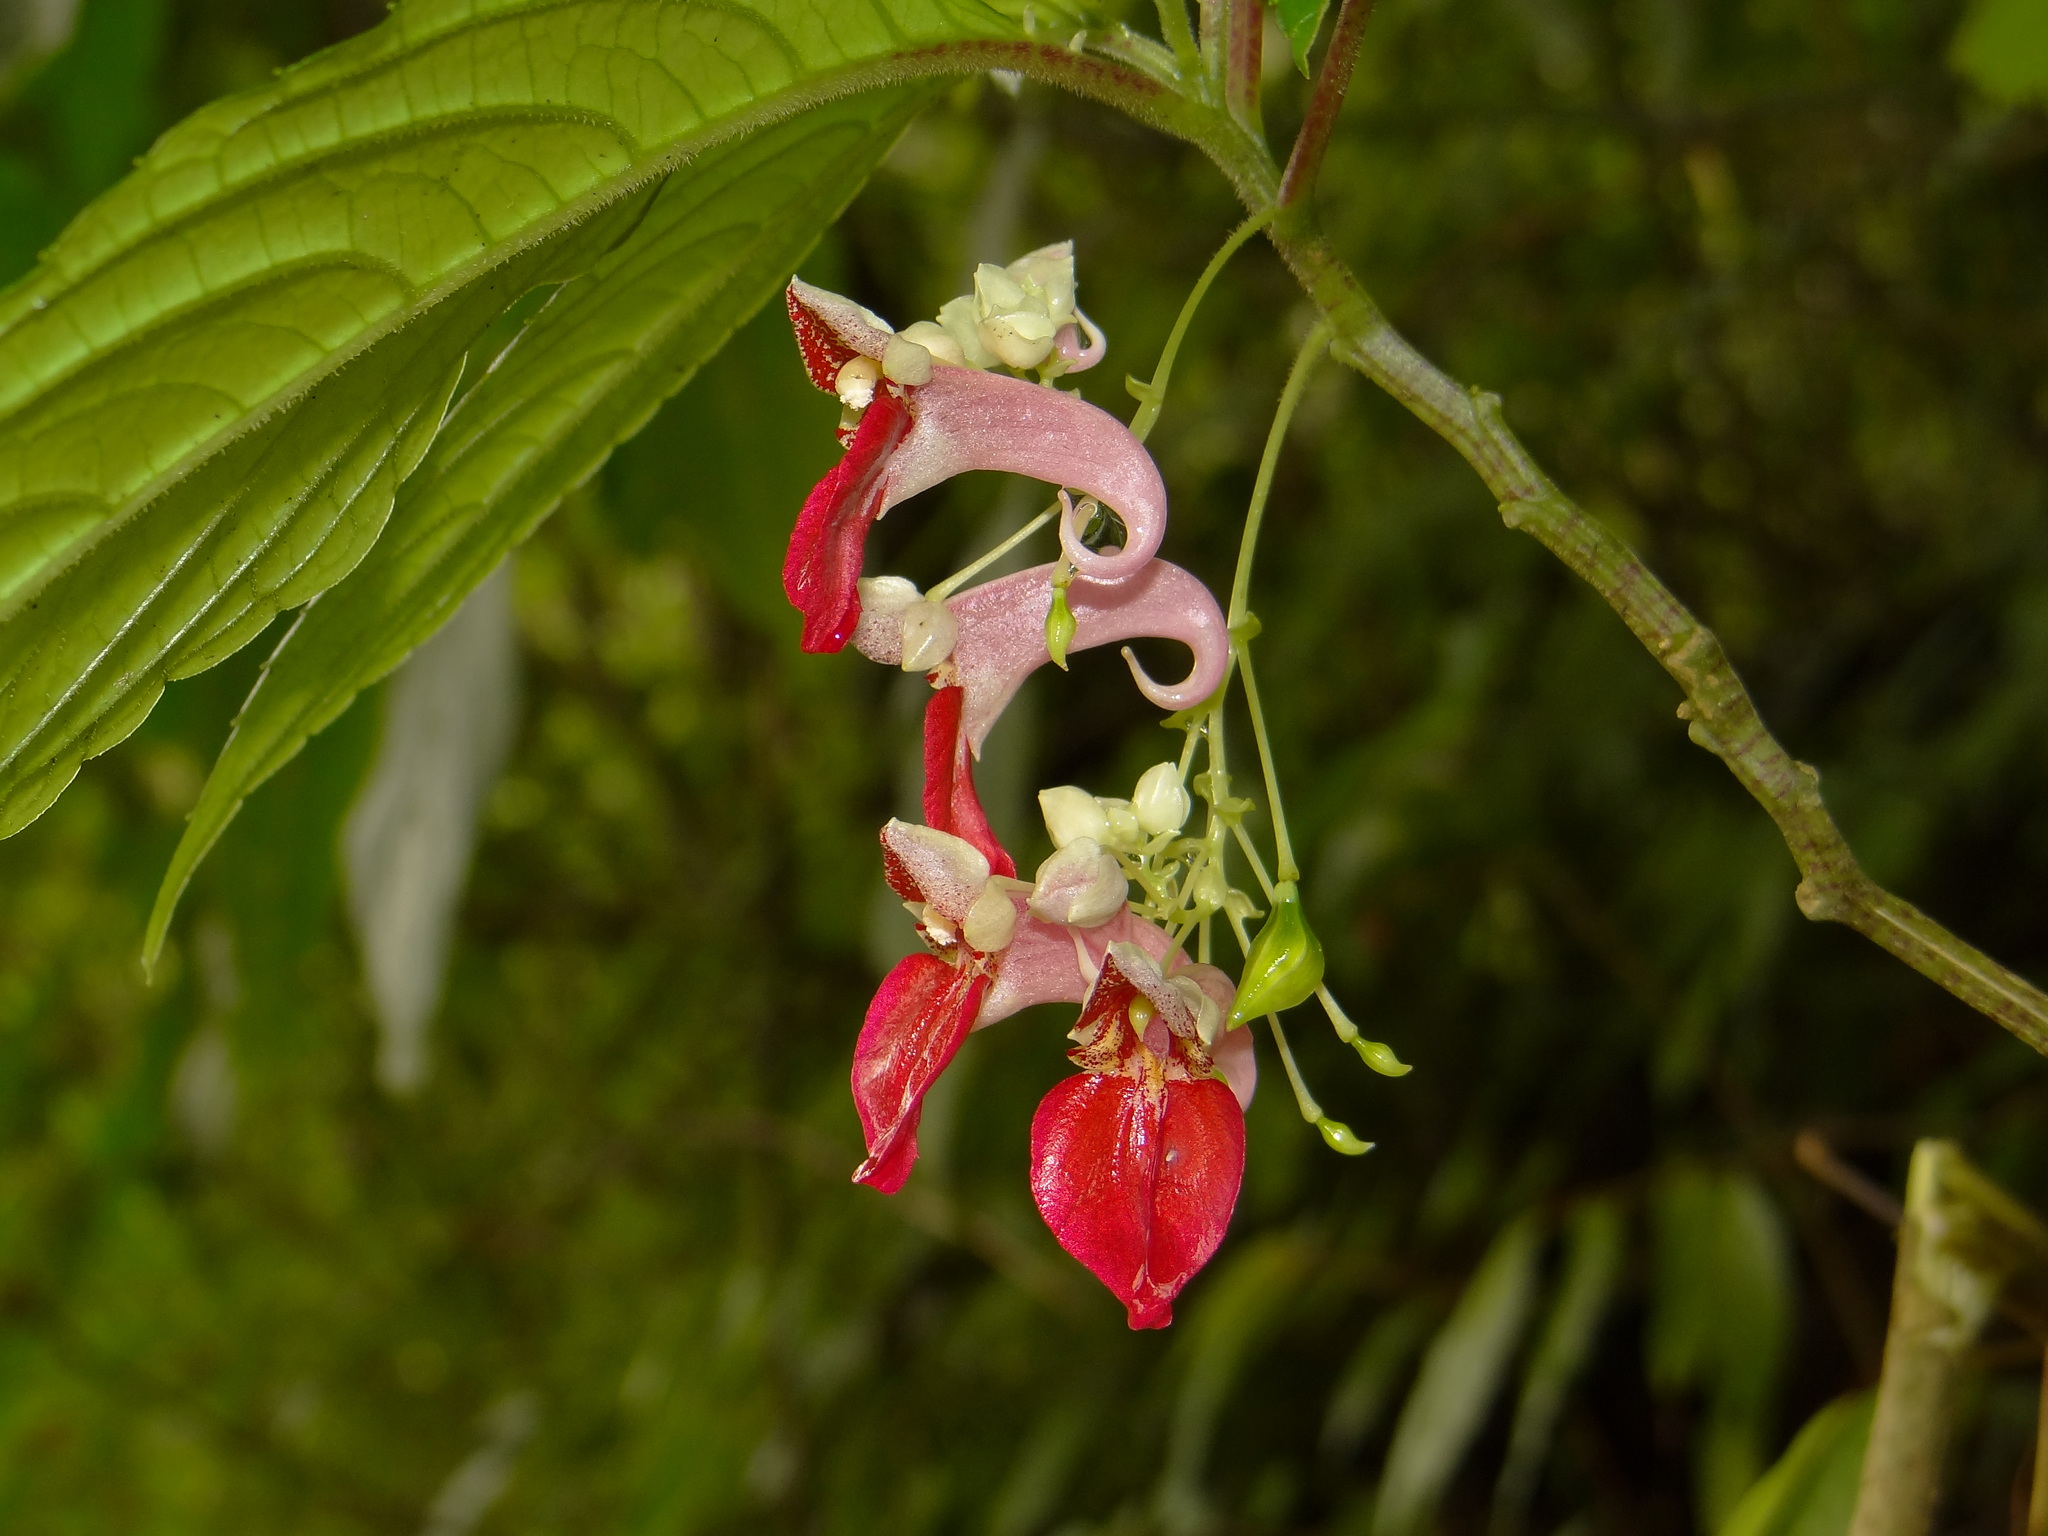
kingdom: Plantae
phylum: Tracheophyta
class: Magnoliopsida
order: Ericales
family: Balsaminaceae
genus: Impatiens
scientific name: Impatiens platyadena
